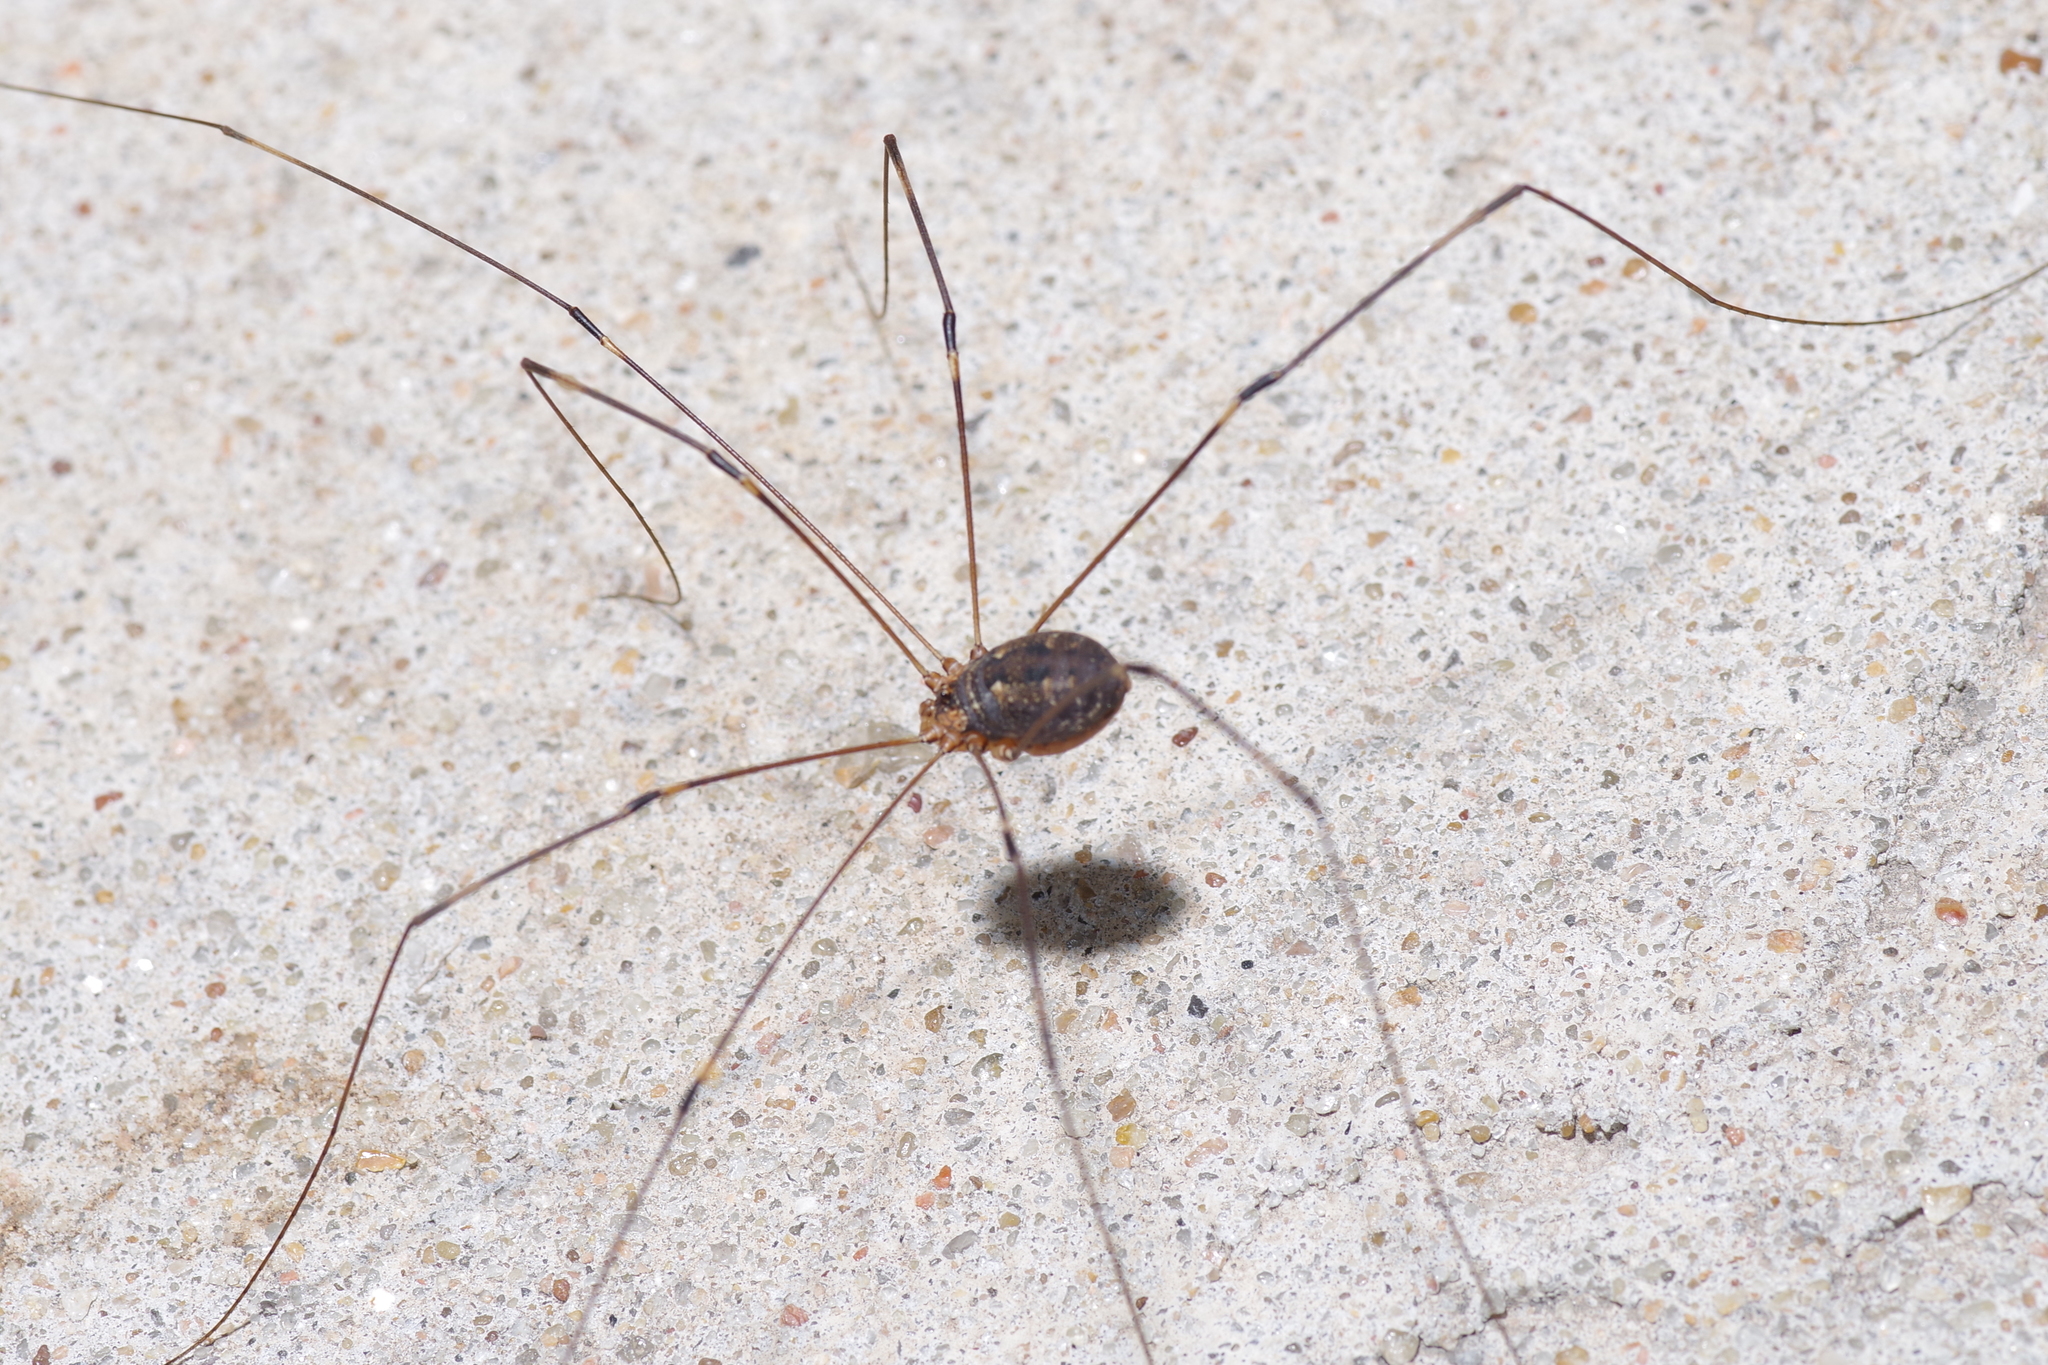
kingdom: Animalia
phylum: Arthropoda
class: Arachnida
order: Opiliones
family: Sclerosomatidae
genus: Leiobunum
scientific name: Leiobunum townsendi
